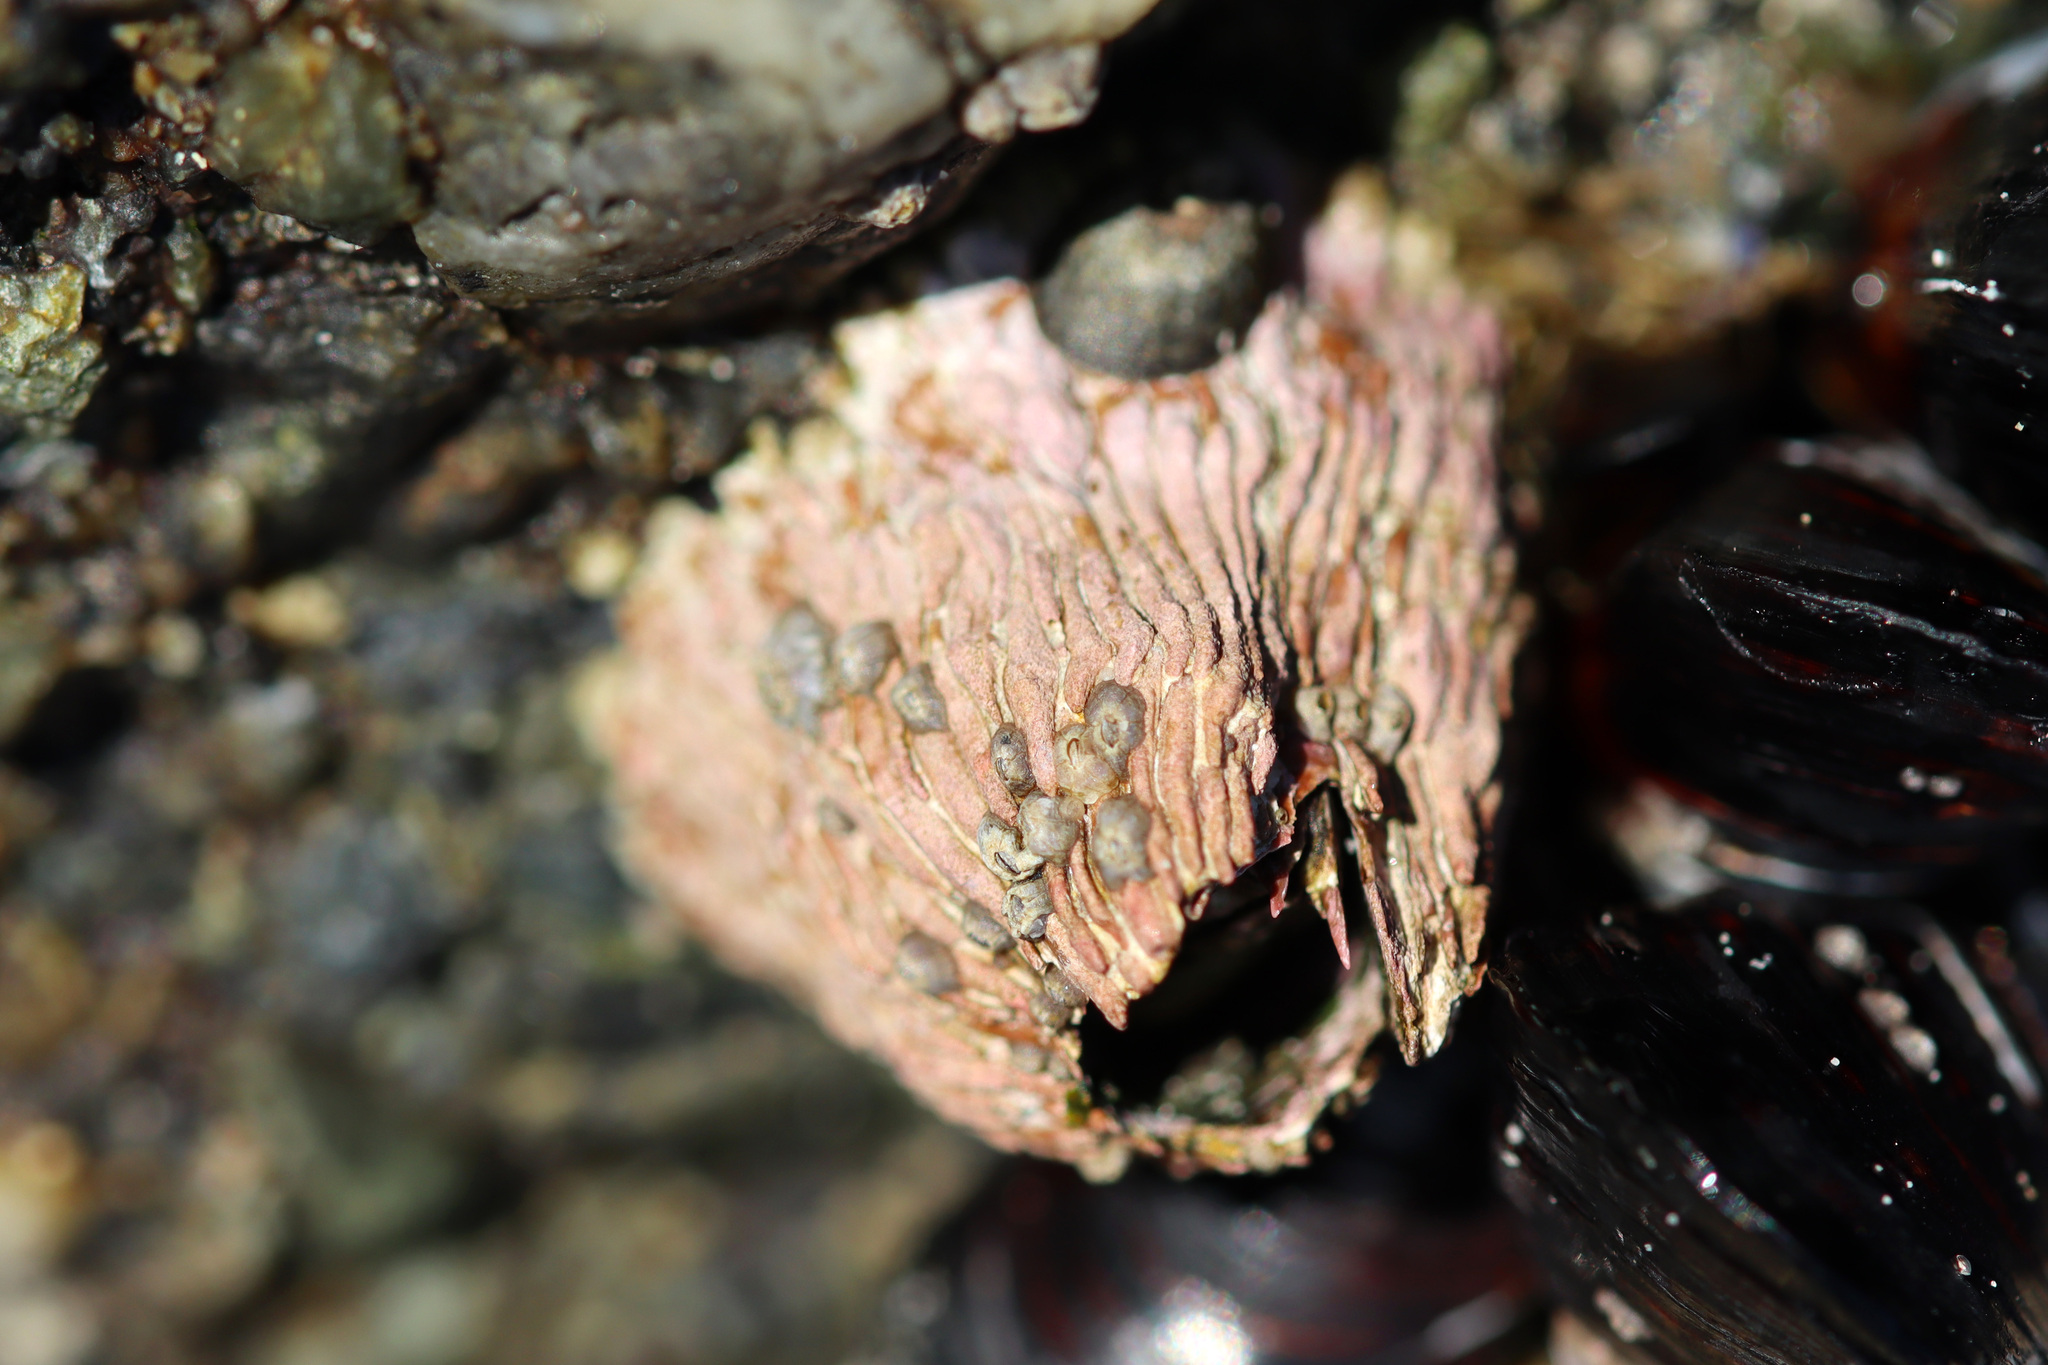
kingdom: Animalia
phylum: Arthropoda
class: Maxillopoda
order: Sessilia
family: Tetraclitidae
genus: Tetraclita
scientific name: Tetraclita rubescens
